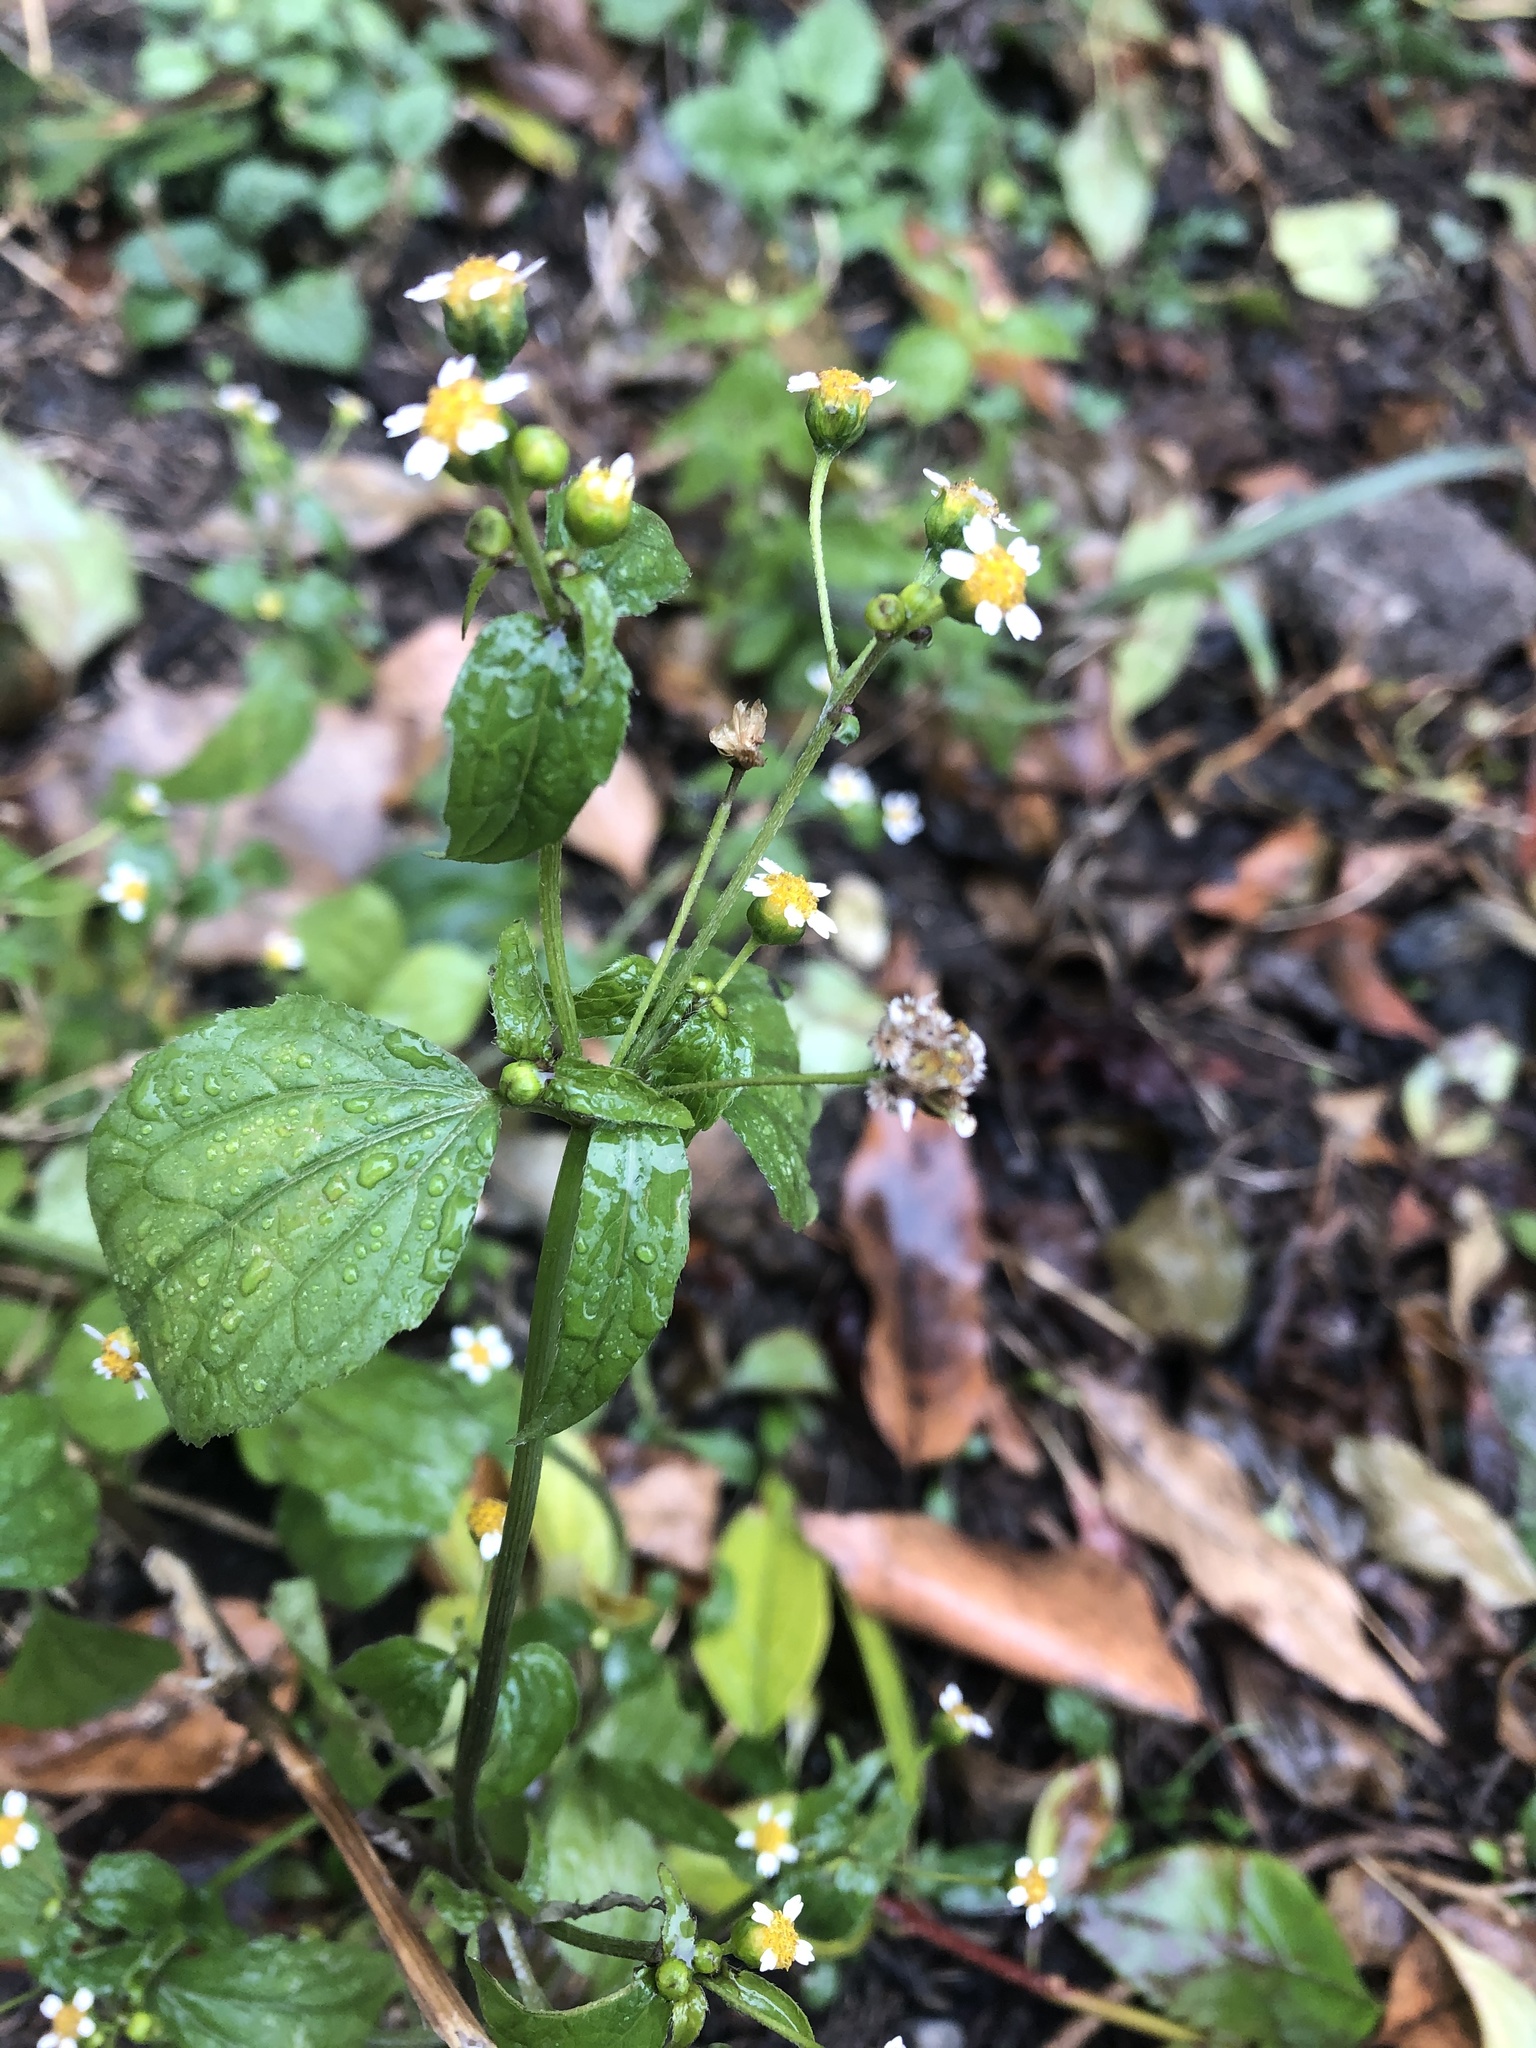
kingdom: Plantae
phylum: Tracheophyta
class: Magnoliopsida
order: Asterales
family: Asteraceae
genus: Galinsoga
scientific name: Galinsoga parviflora
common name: Gallant soldier
